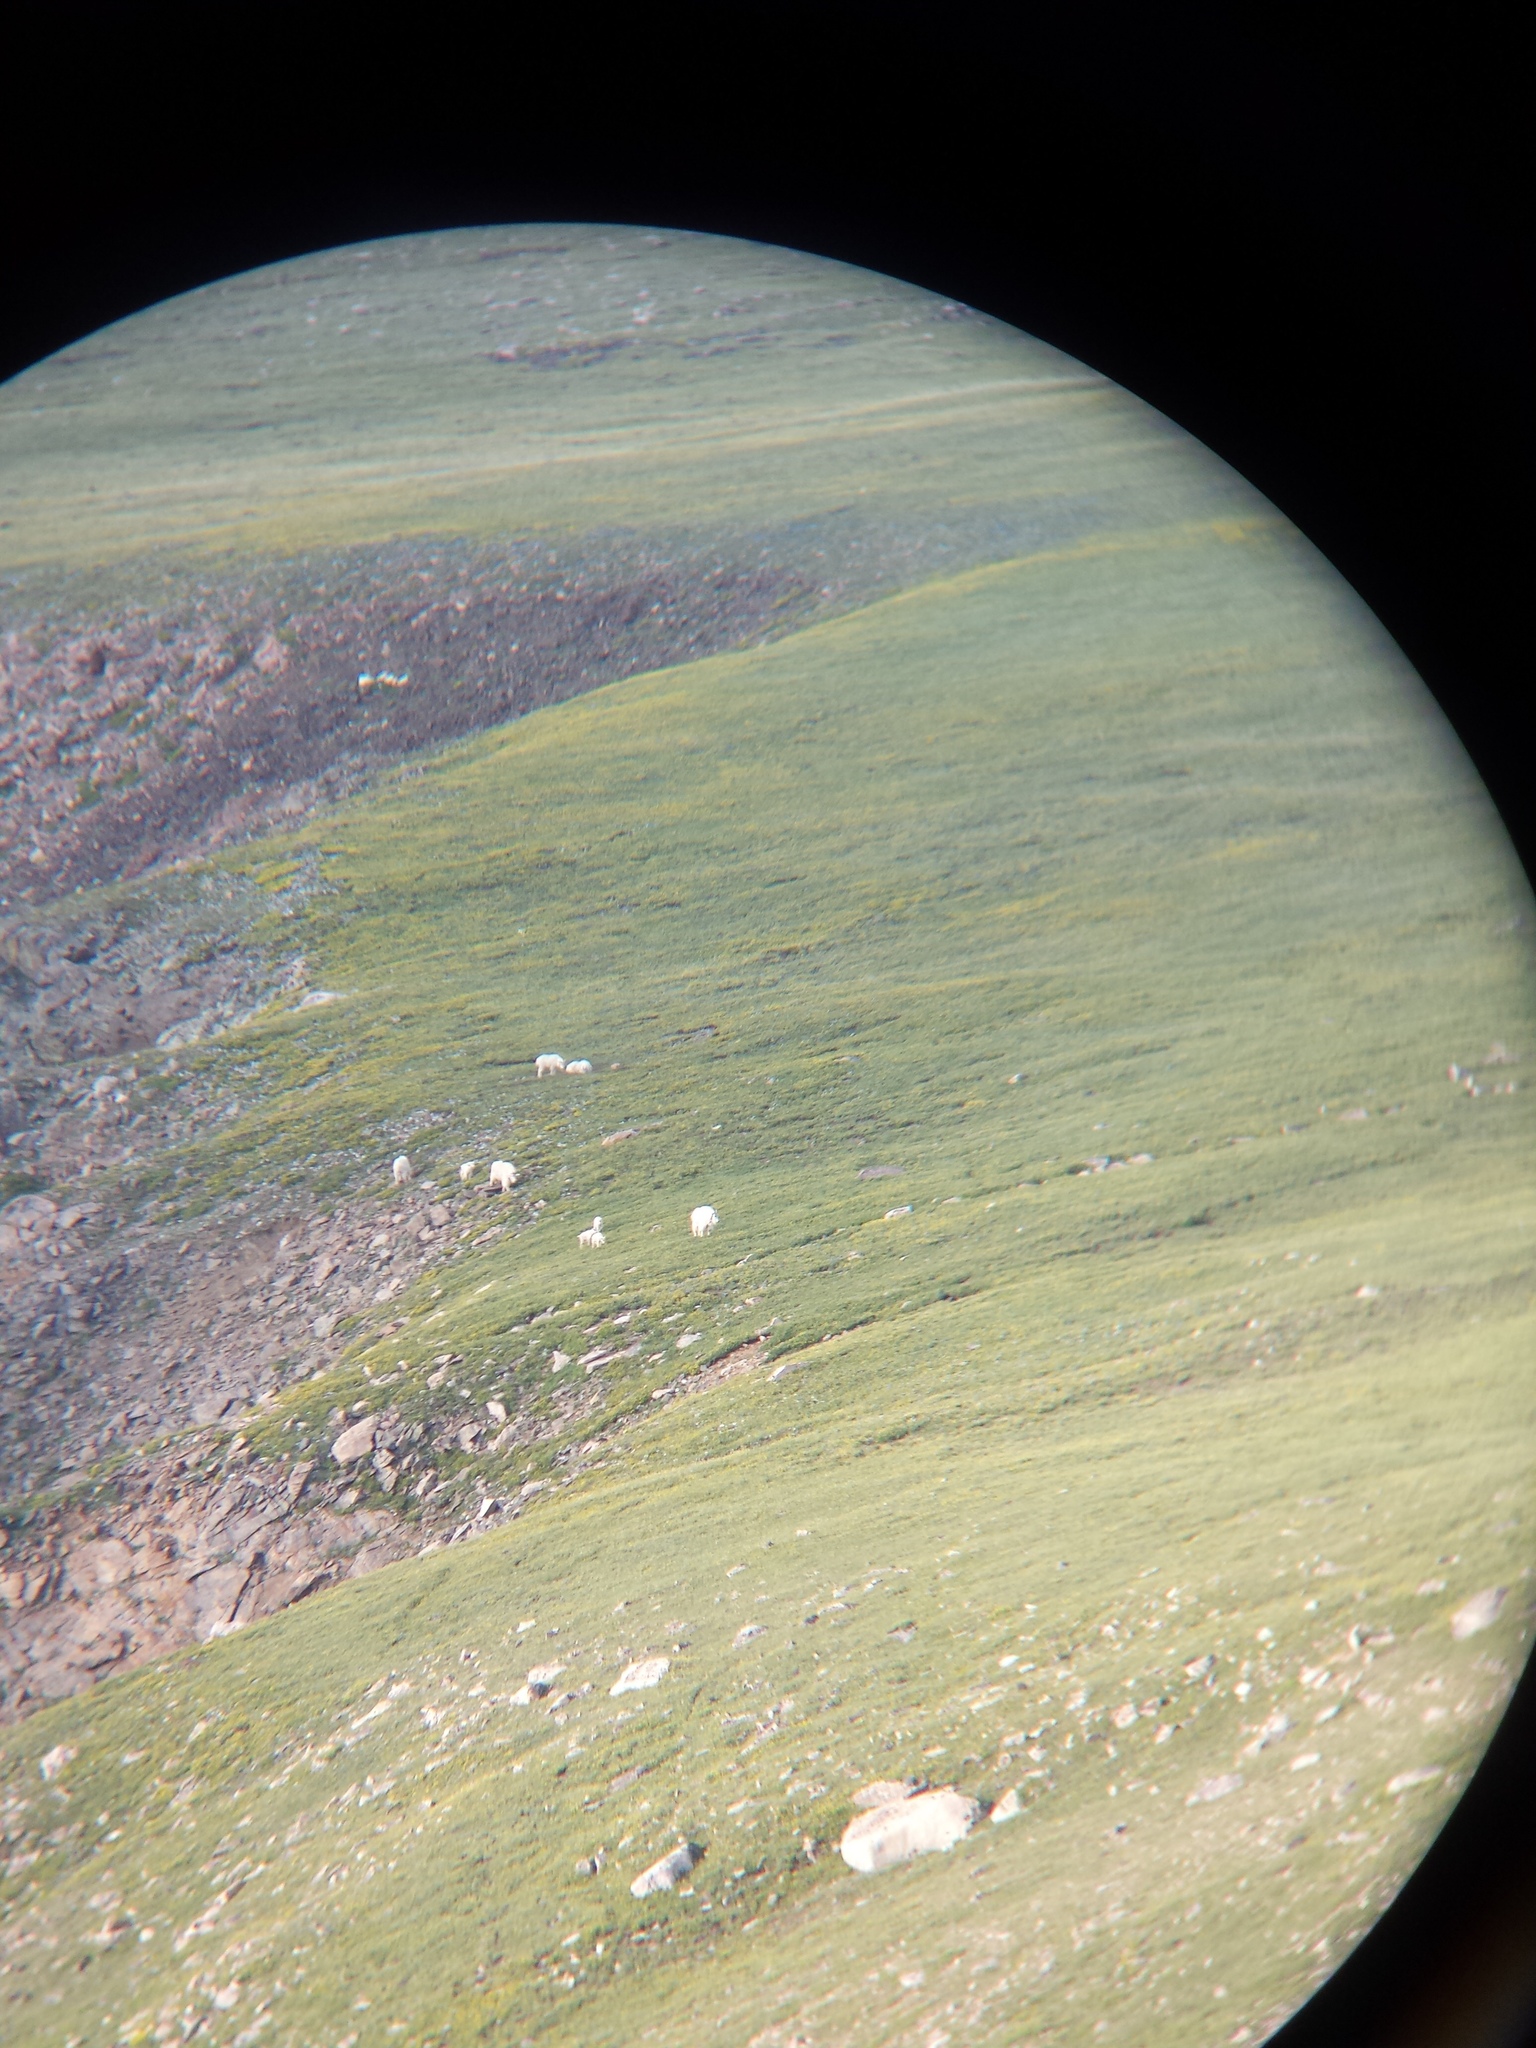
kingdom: Animalia
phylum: Chordata
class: Mammalia
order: Artiodactyla
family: Bovidae
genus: Oreamnos
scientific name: Oreamnos americanus
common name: Mountain goat
